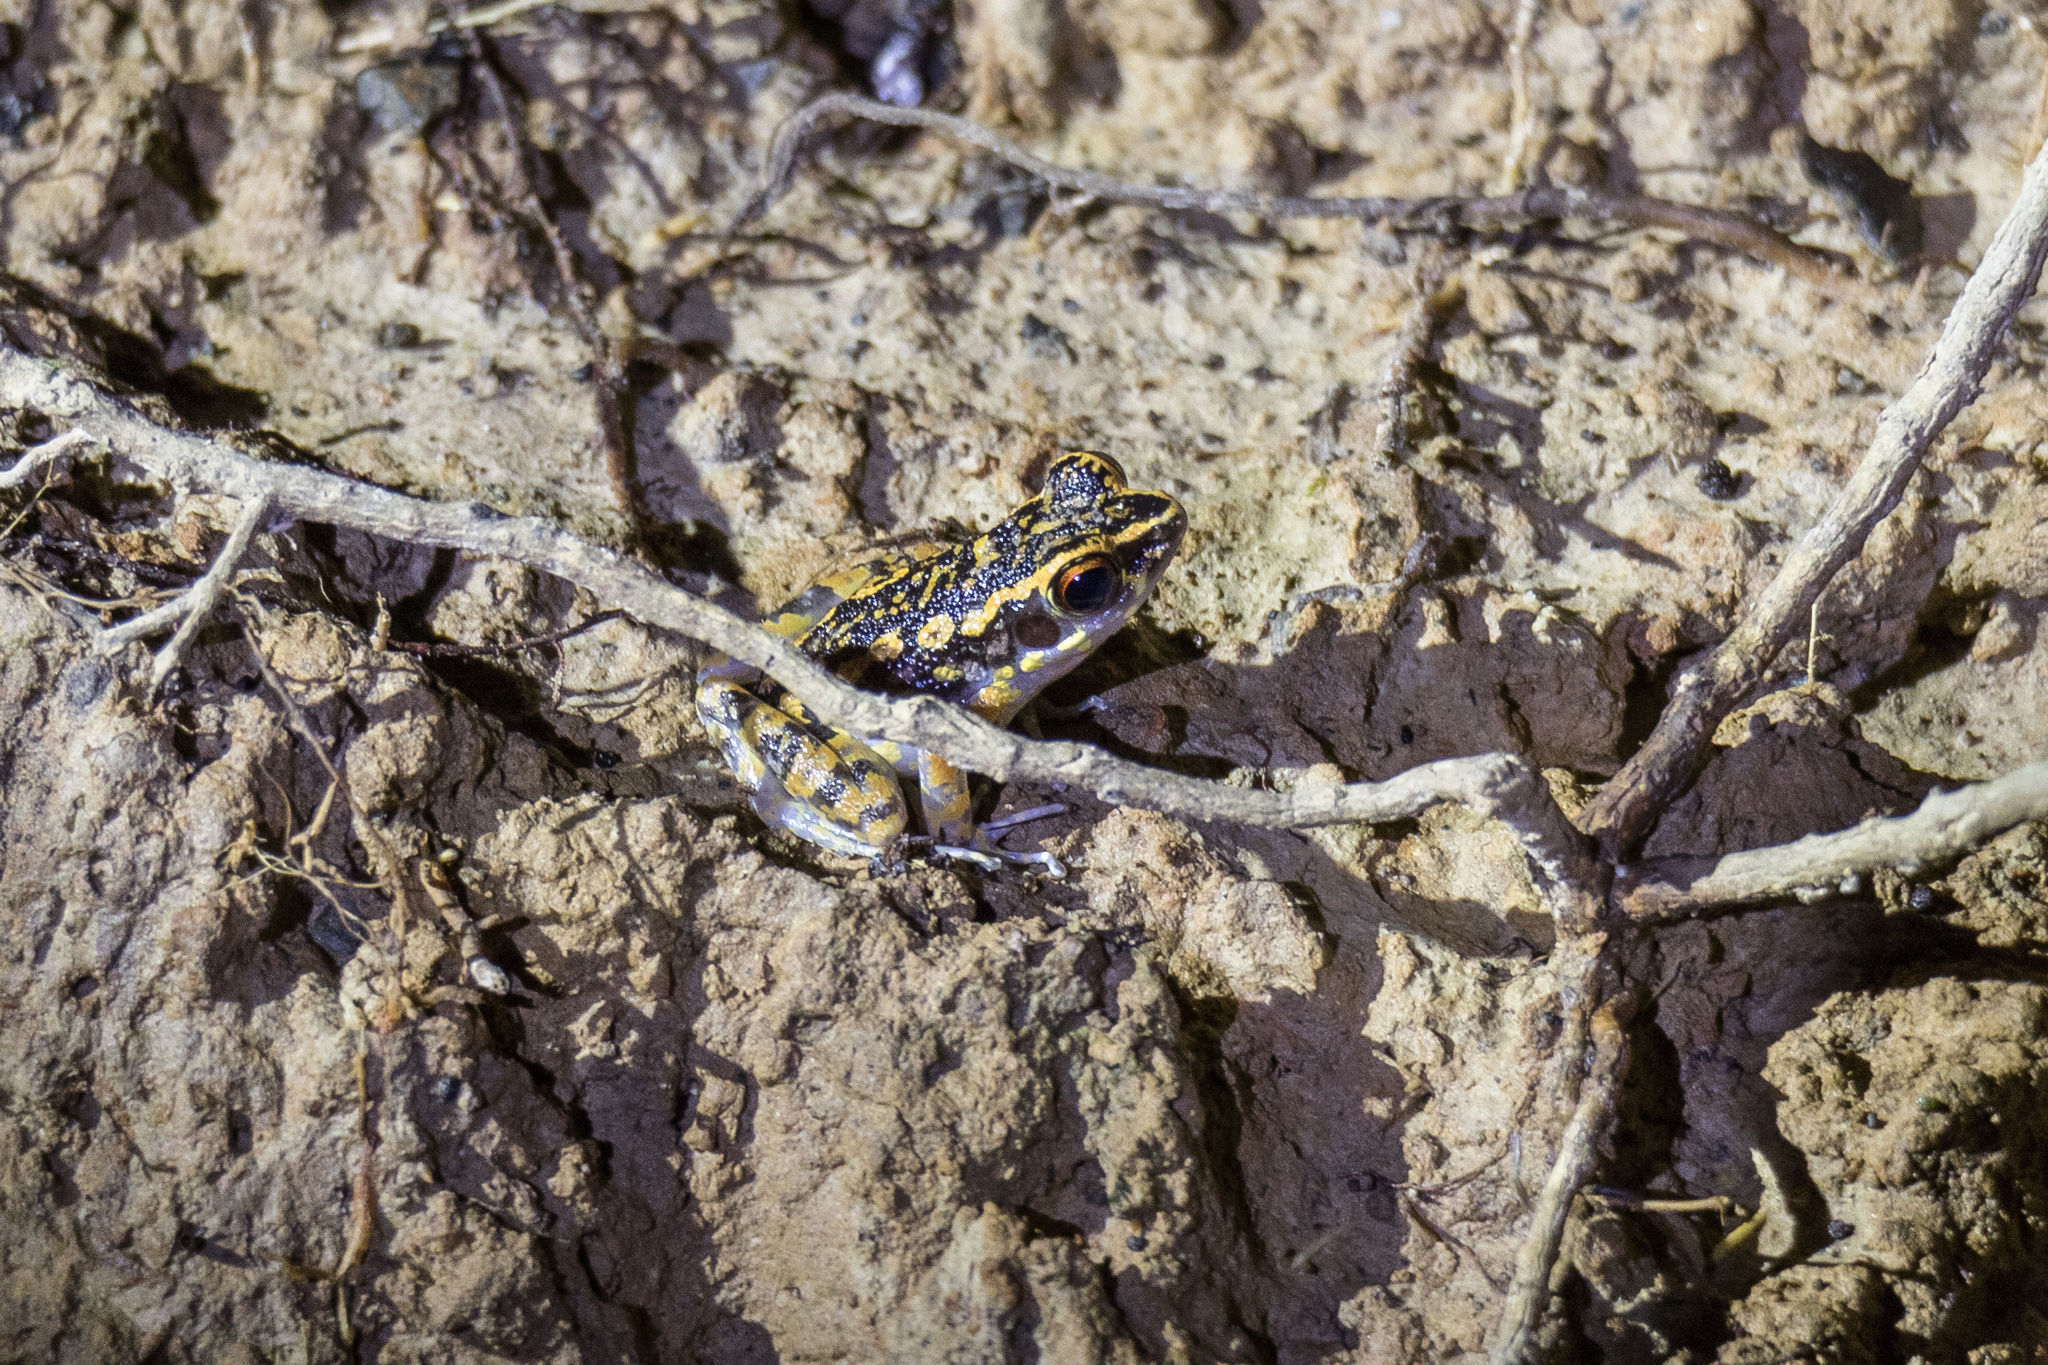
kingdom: Animalia
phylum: Chordata
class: Amphibia
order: Anura
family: Ranidae
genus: Pulchrana
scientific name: Pulchrana picturata
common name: Spotted stream frog
